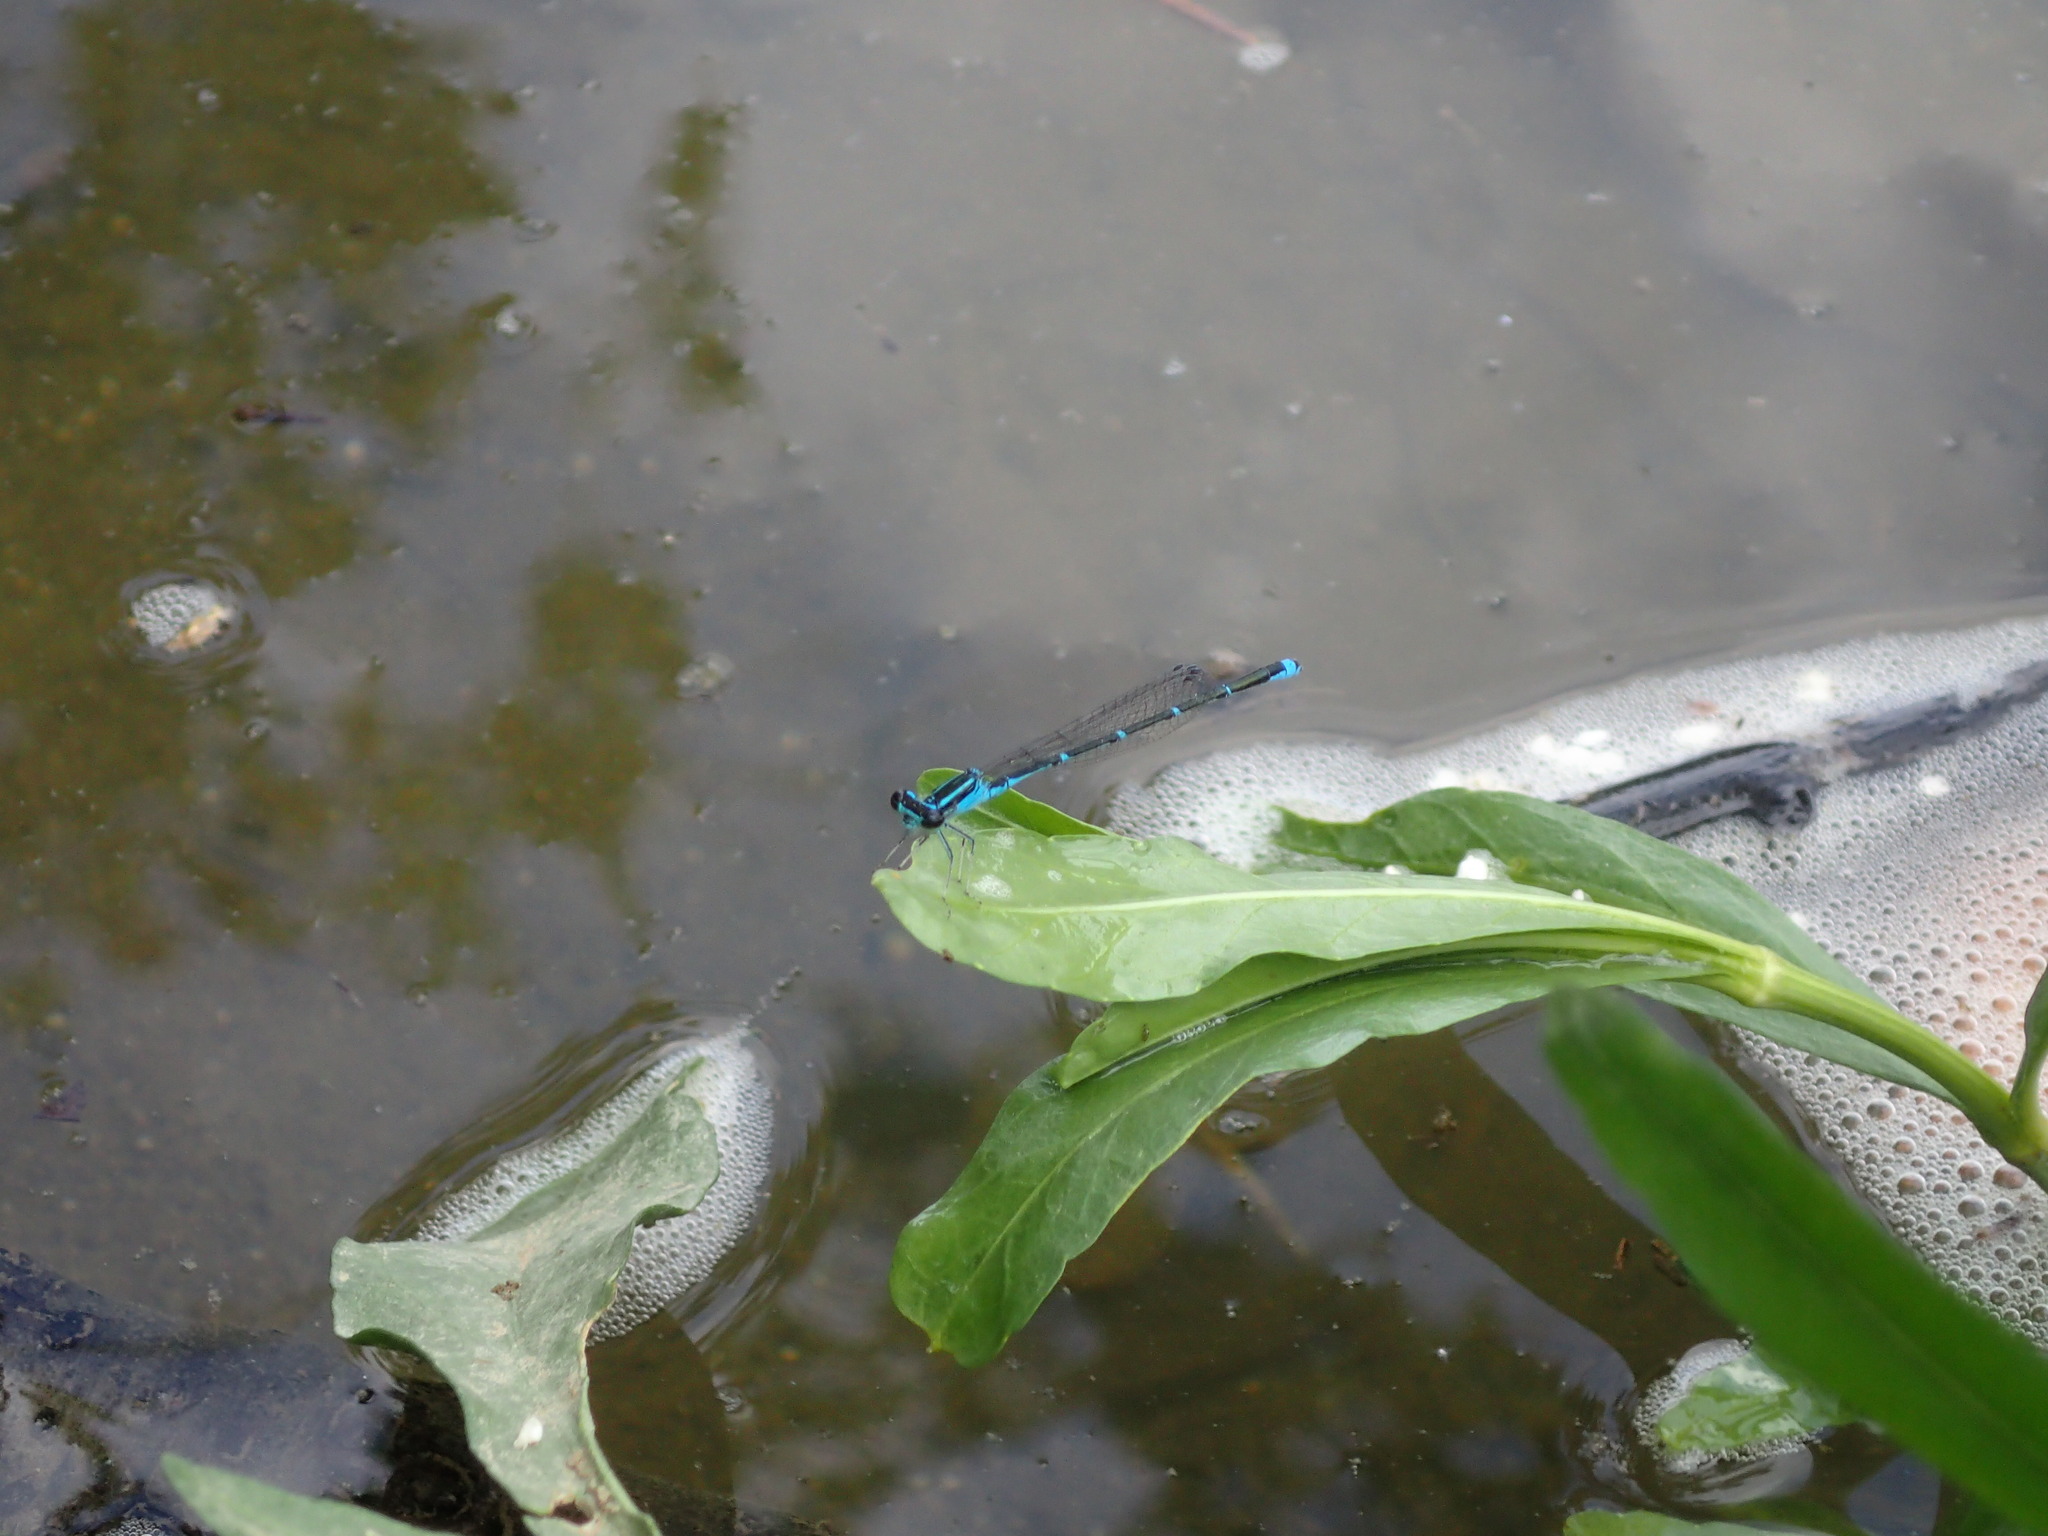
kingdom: Animalia
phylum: Arthropoda
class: Insecta
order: Odonata
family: Coenagrionidae
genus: Enallagma
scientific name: Enallagma exsulans
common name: Stream bluet
